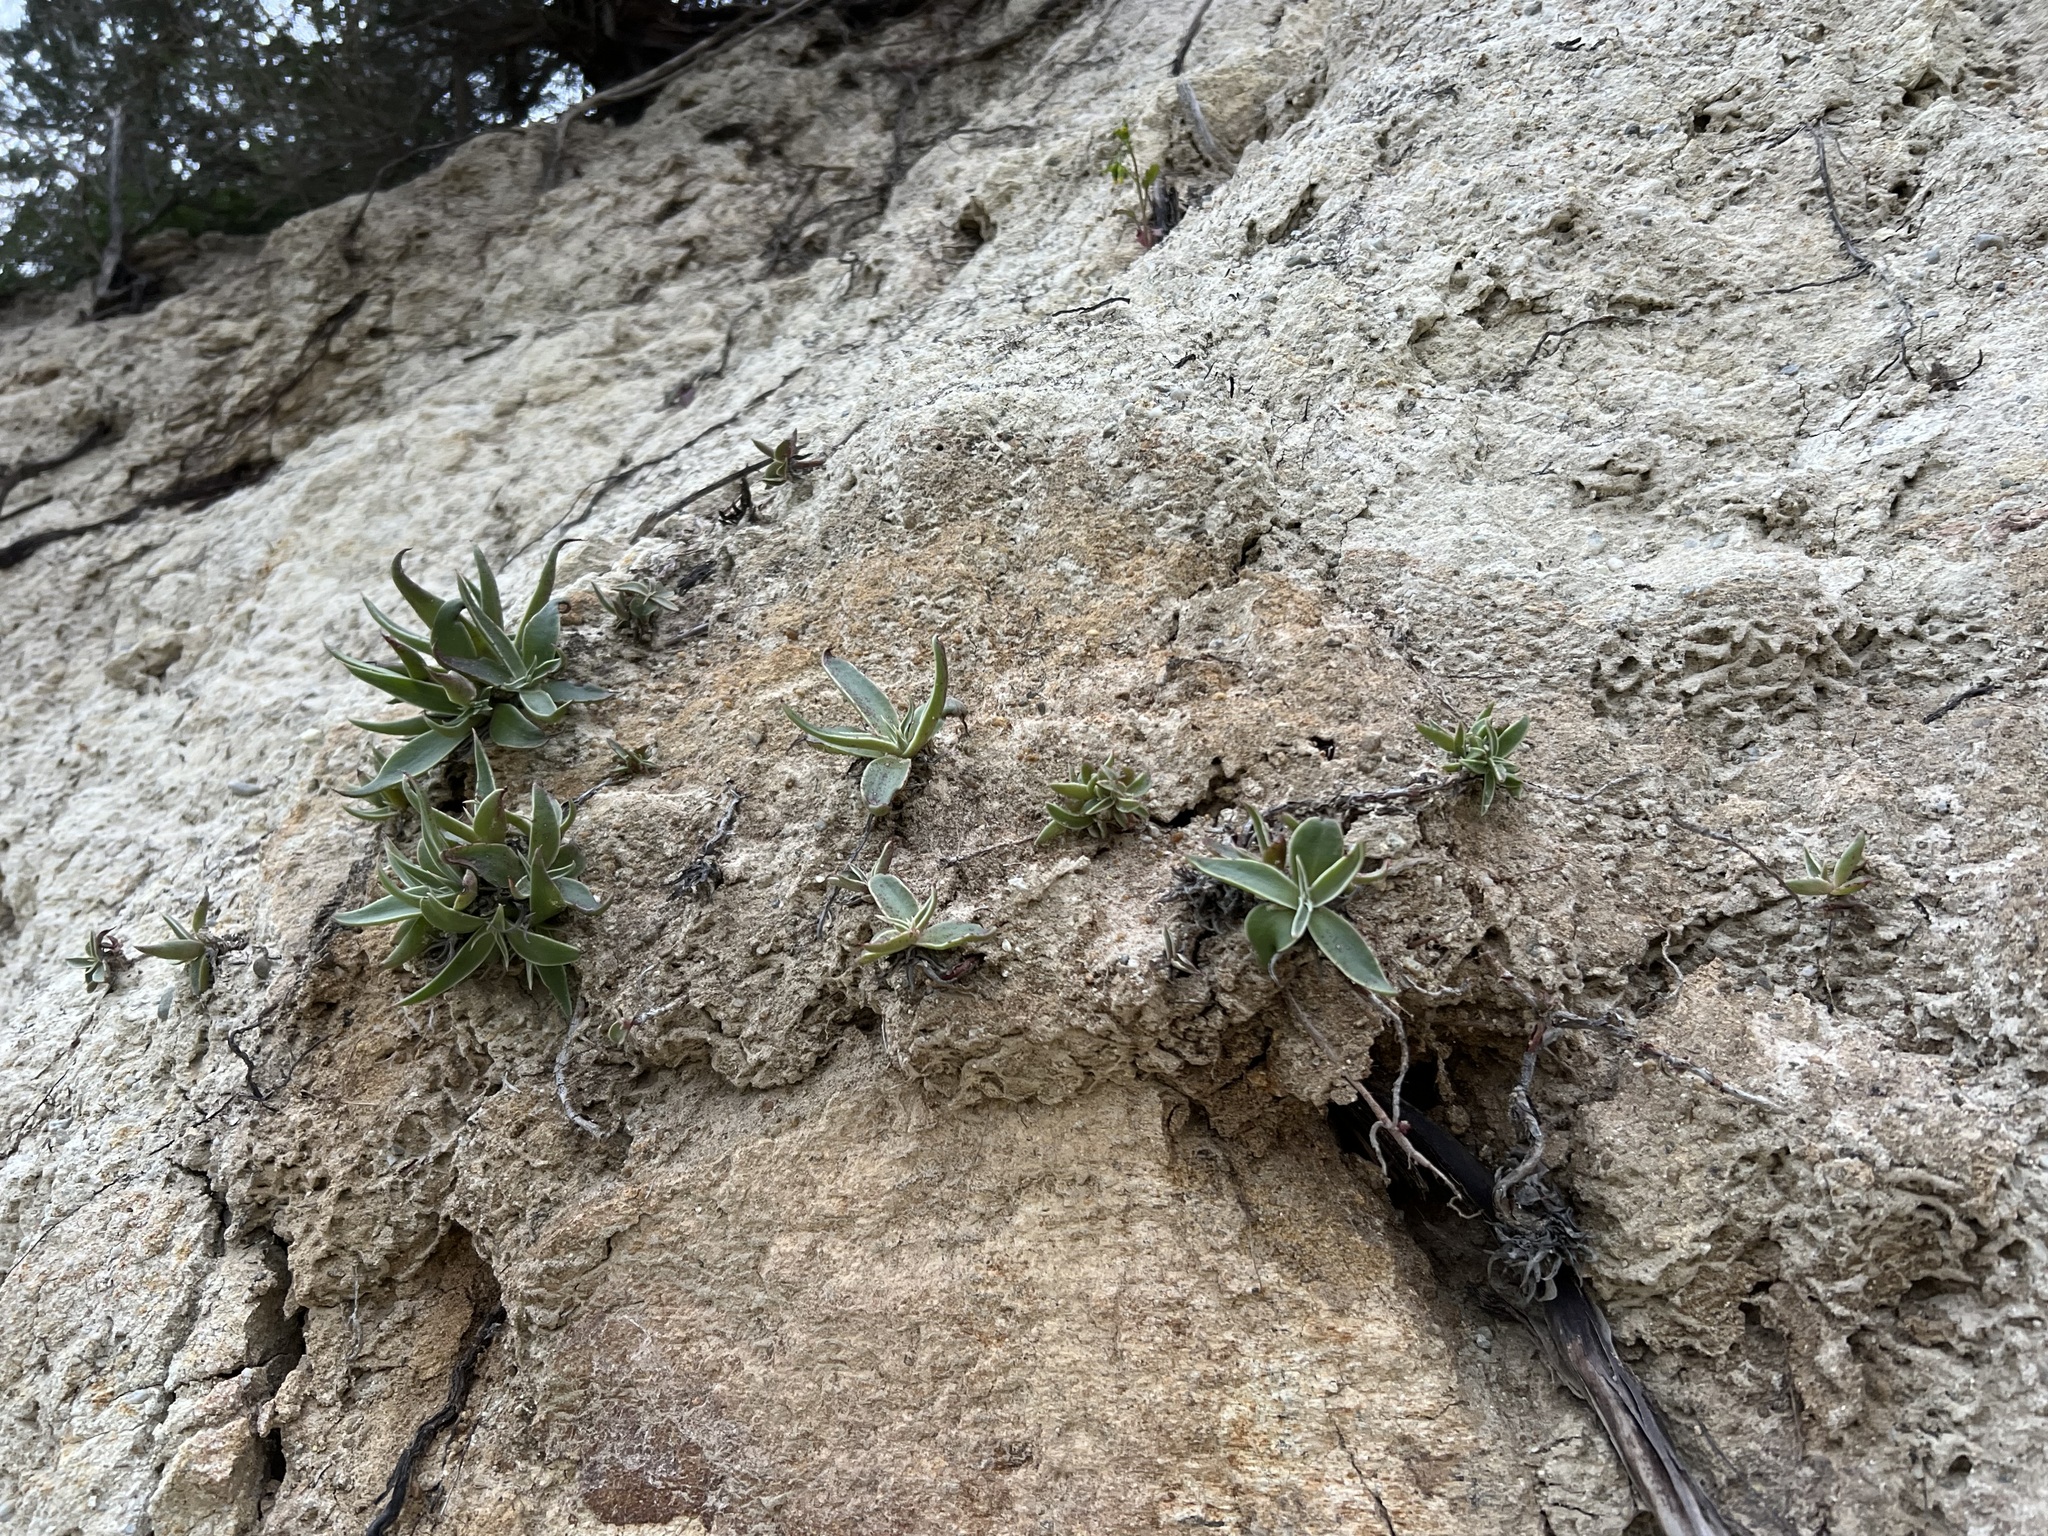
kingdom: Plantae
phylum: Tracheophyta
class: Magnoliopsida
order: Saxifragales
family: Crassulaceae
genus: Dudleya
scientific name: Dudleya lanceolata
